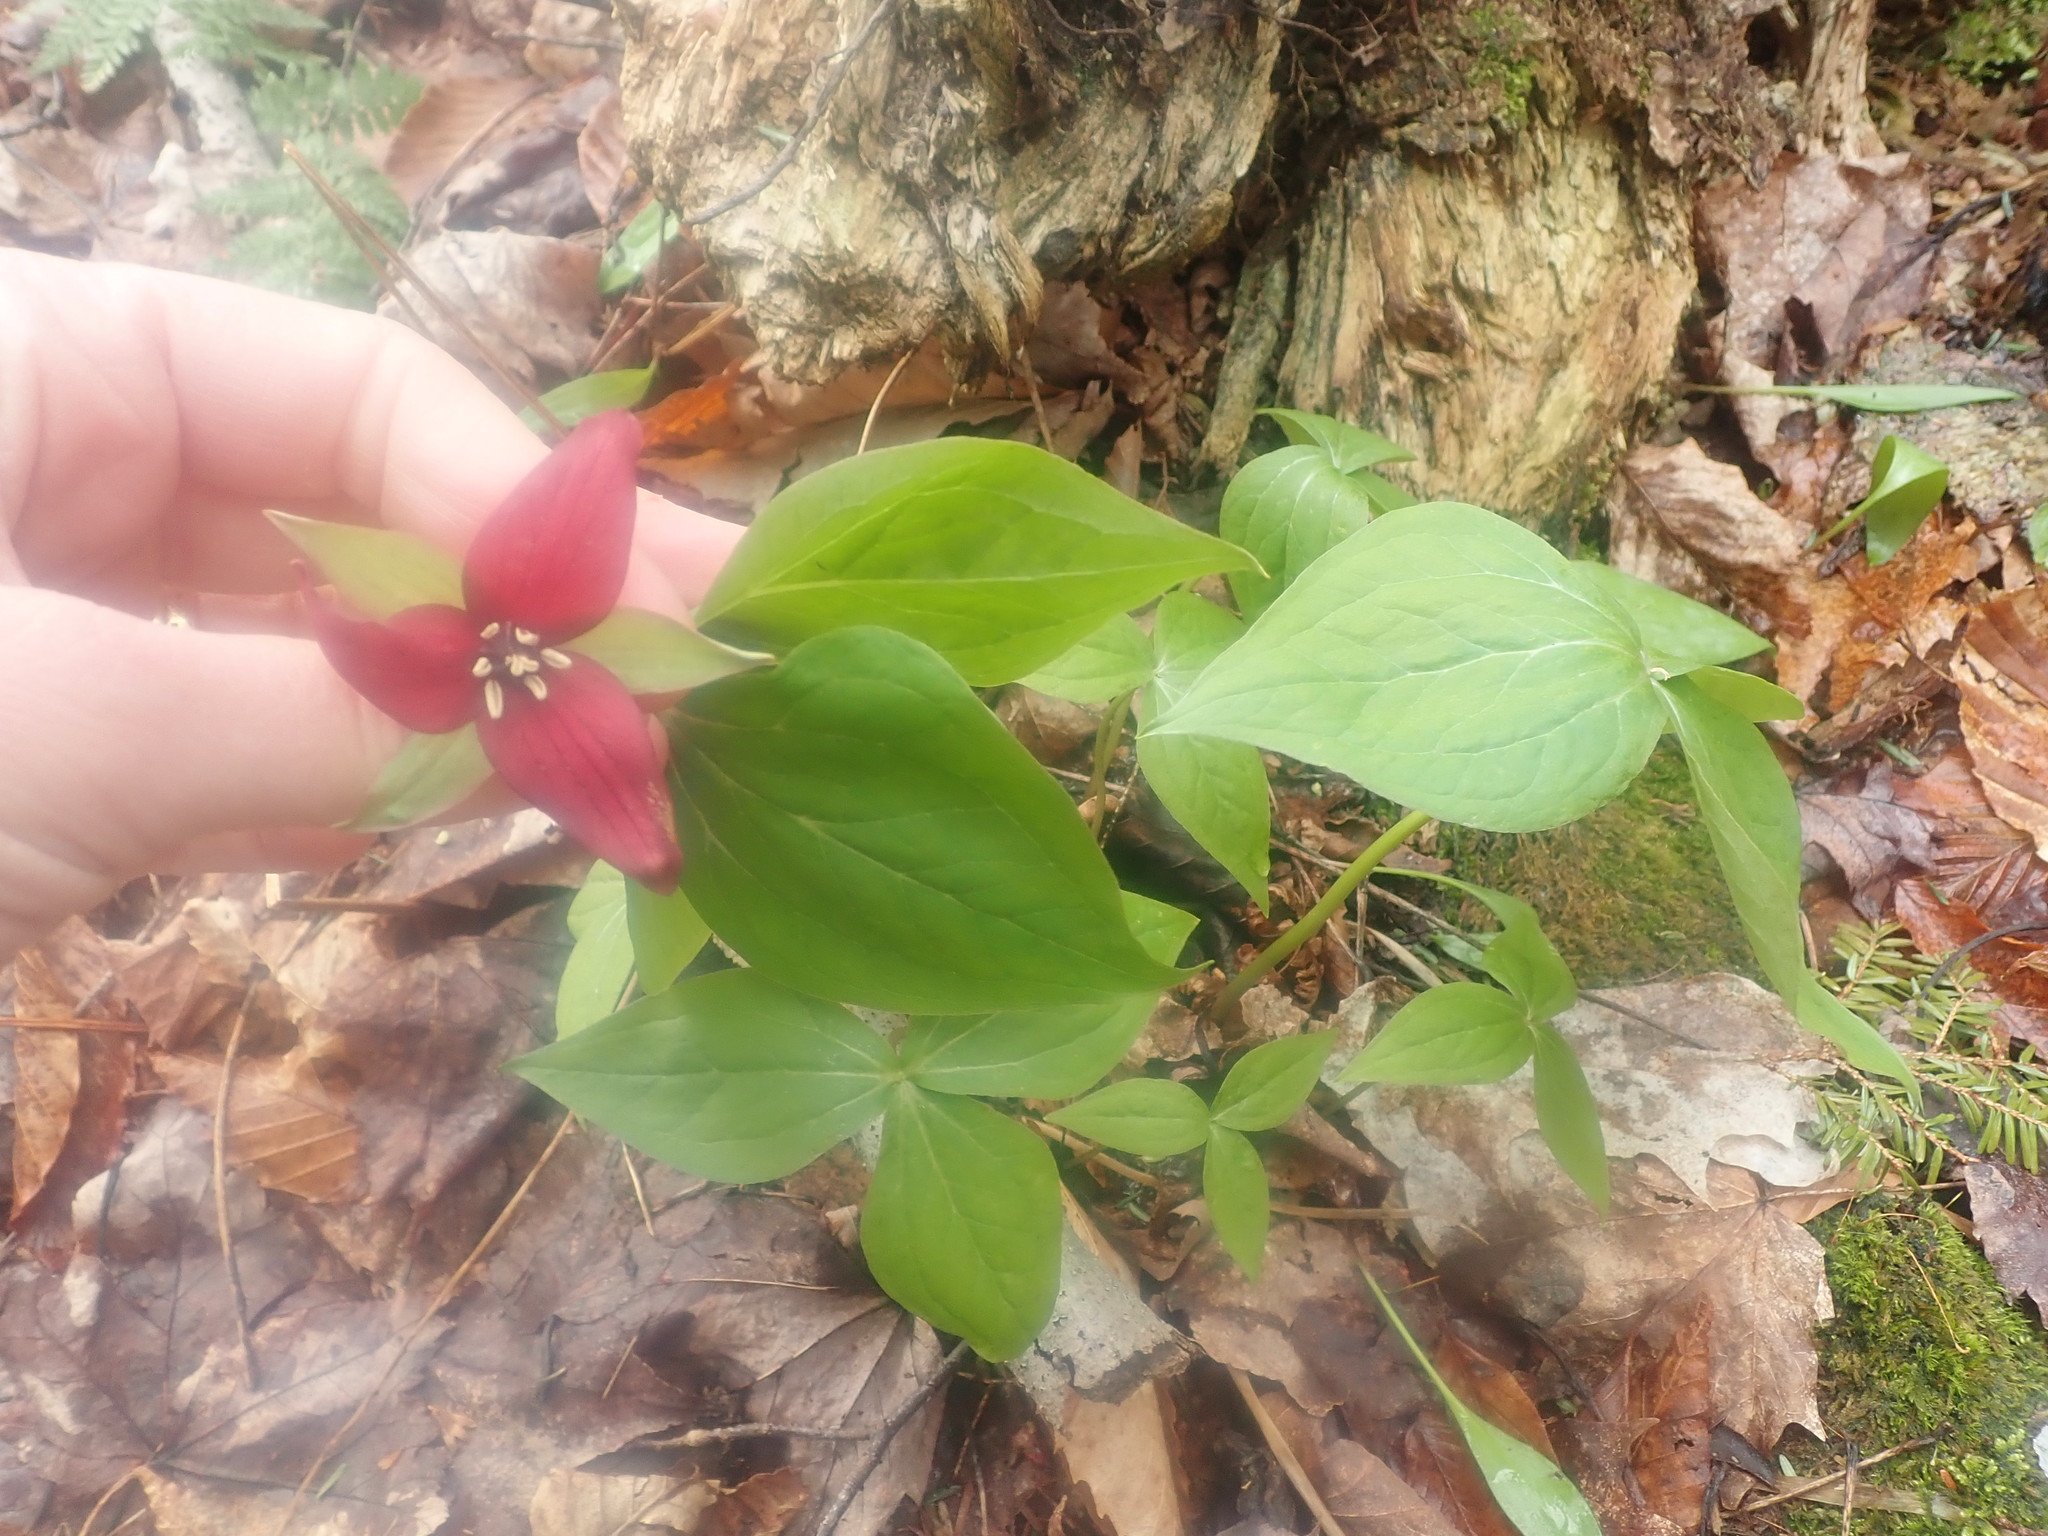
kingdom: Plantae
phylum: Tracheophyta
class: Liliopsida
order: Liliales
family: Melanthiaceae
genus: Trillium
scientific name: Trillium erectum
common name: Purple trillium
